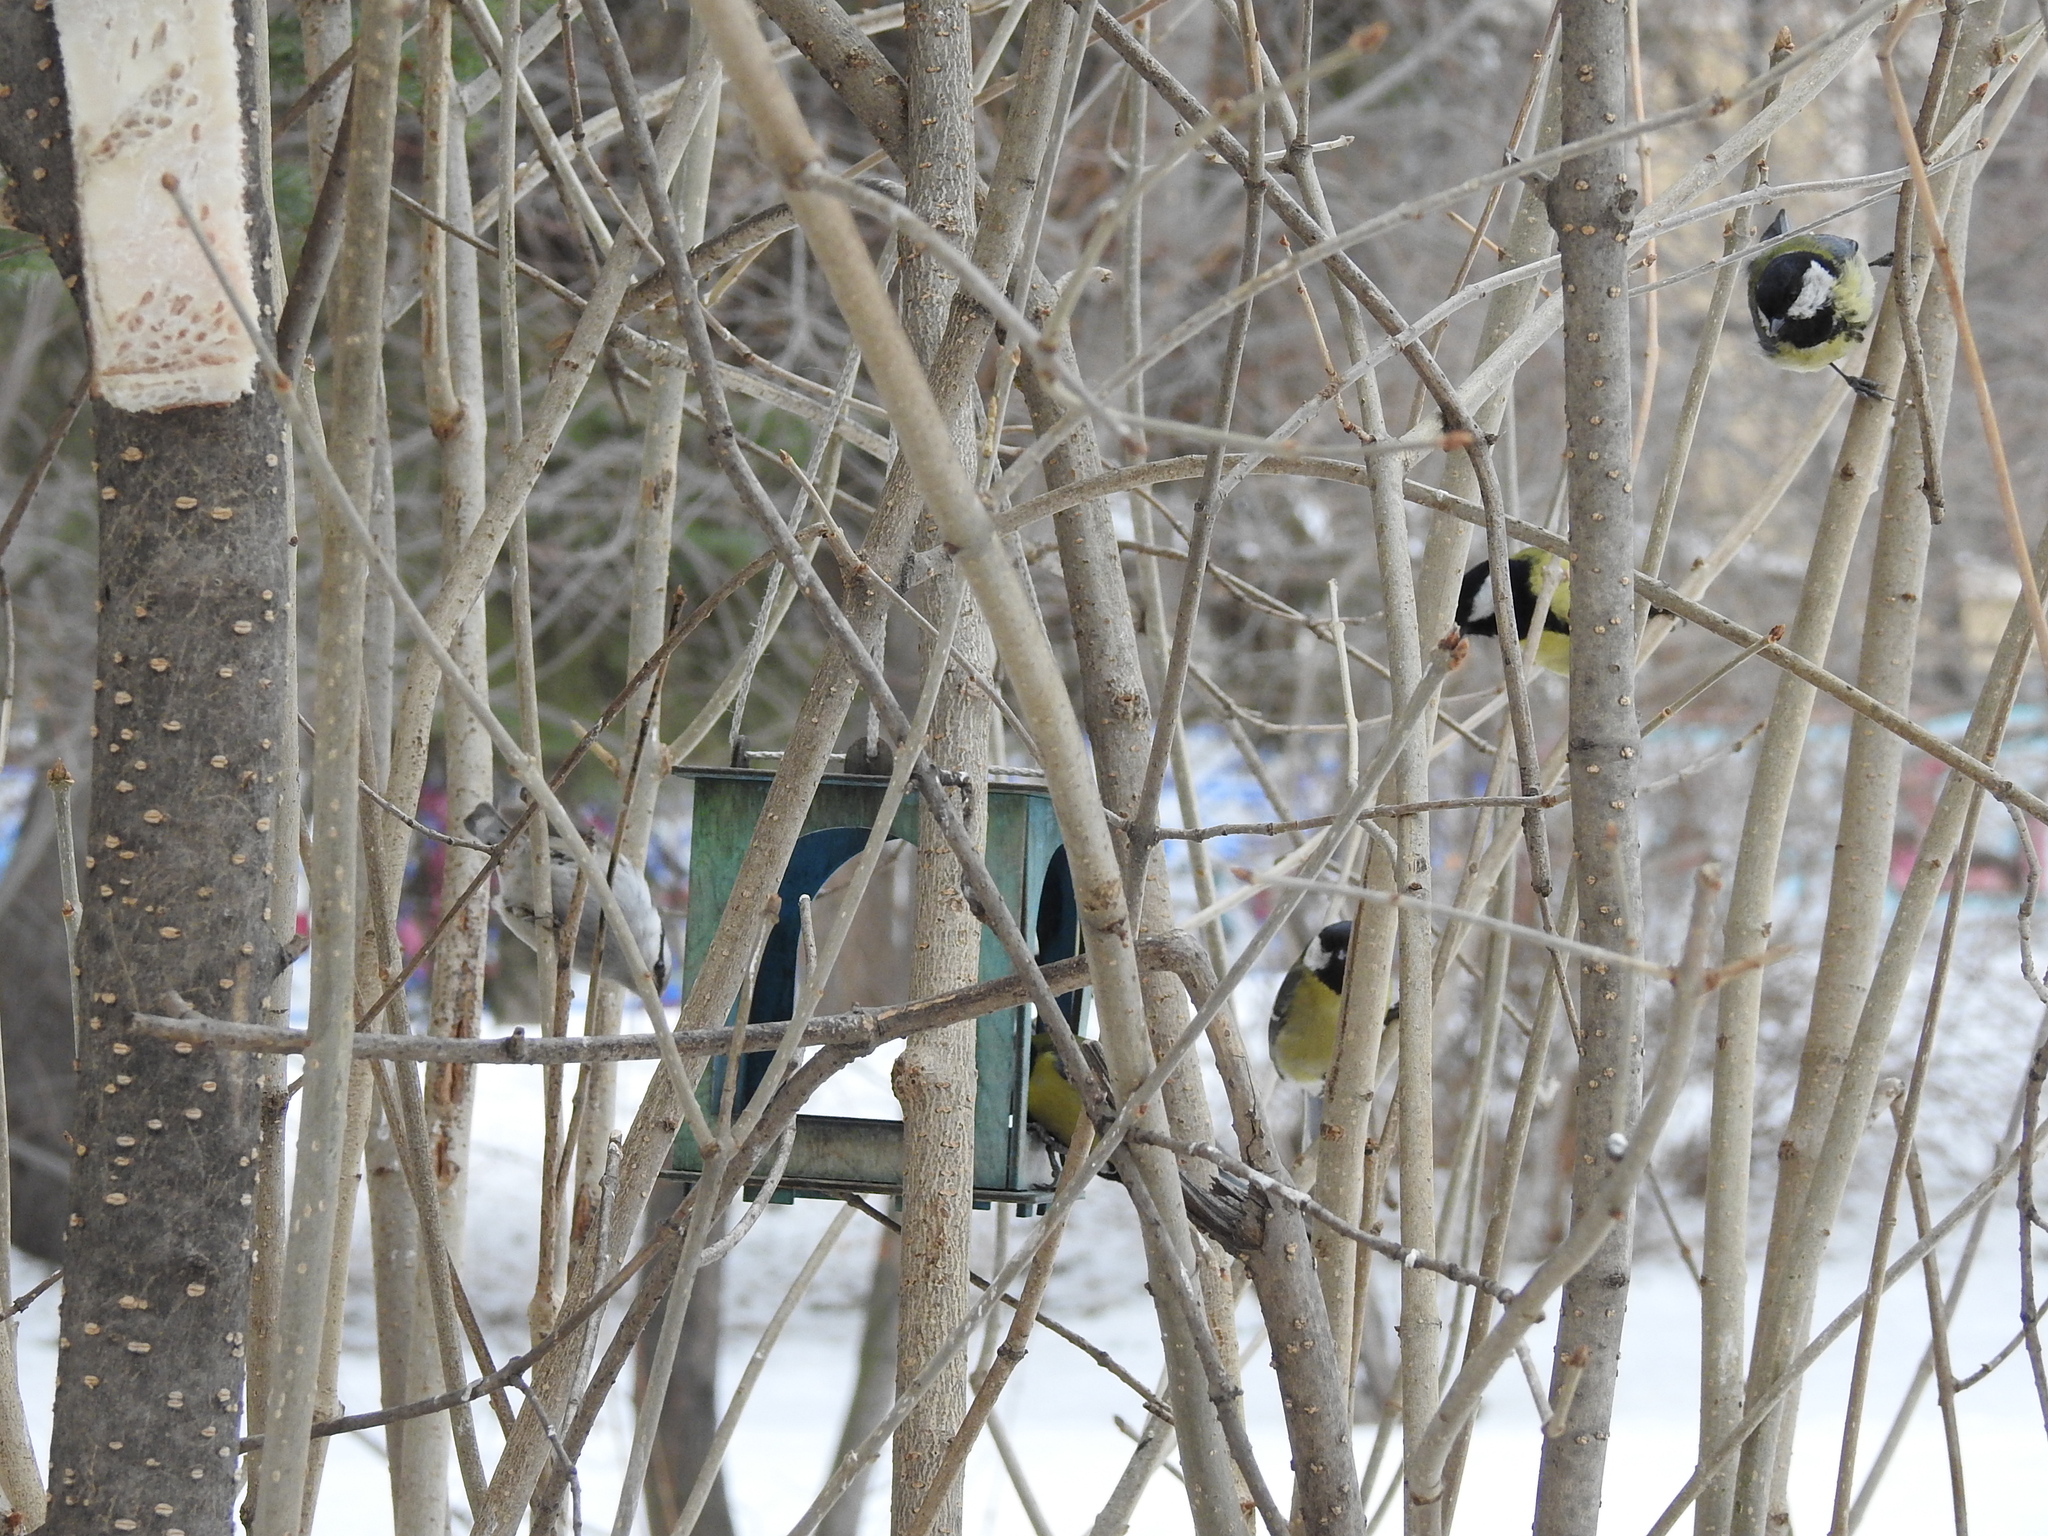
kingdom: Animalia
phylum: Chordata
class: Aves
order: Passeriformes
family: Paridae
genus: Parus
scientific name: Parus major
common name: Great tit
